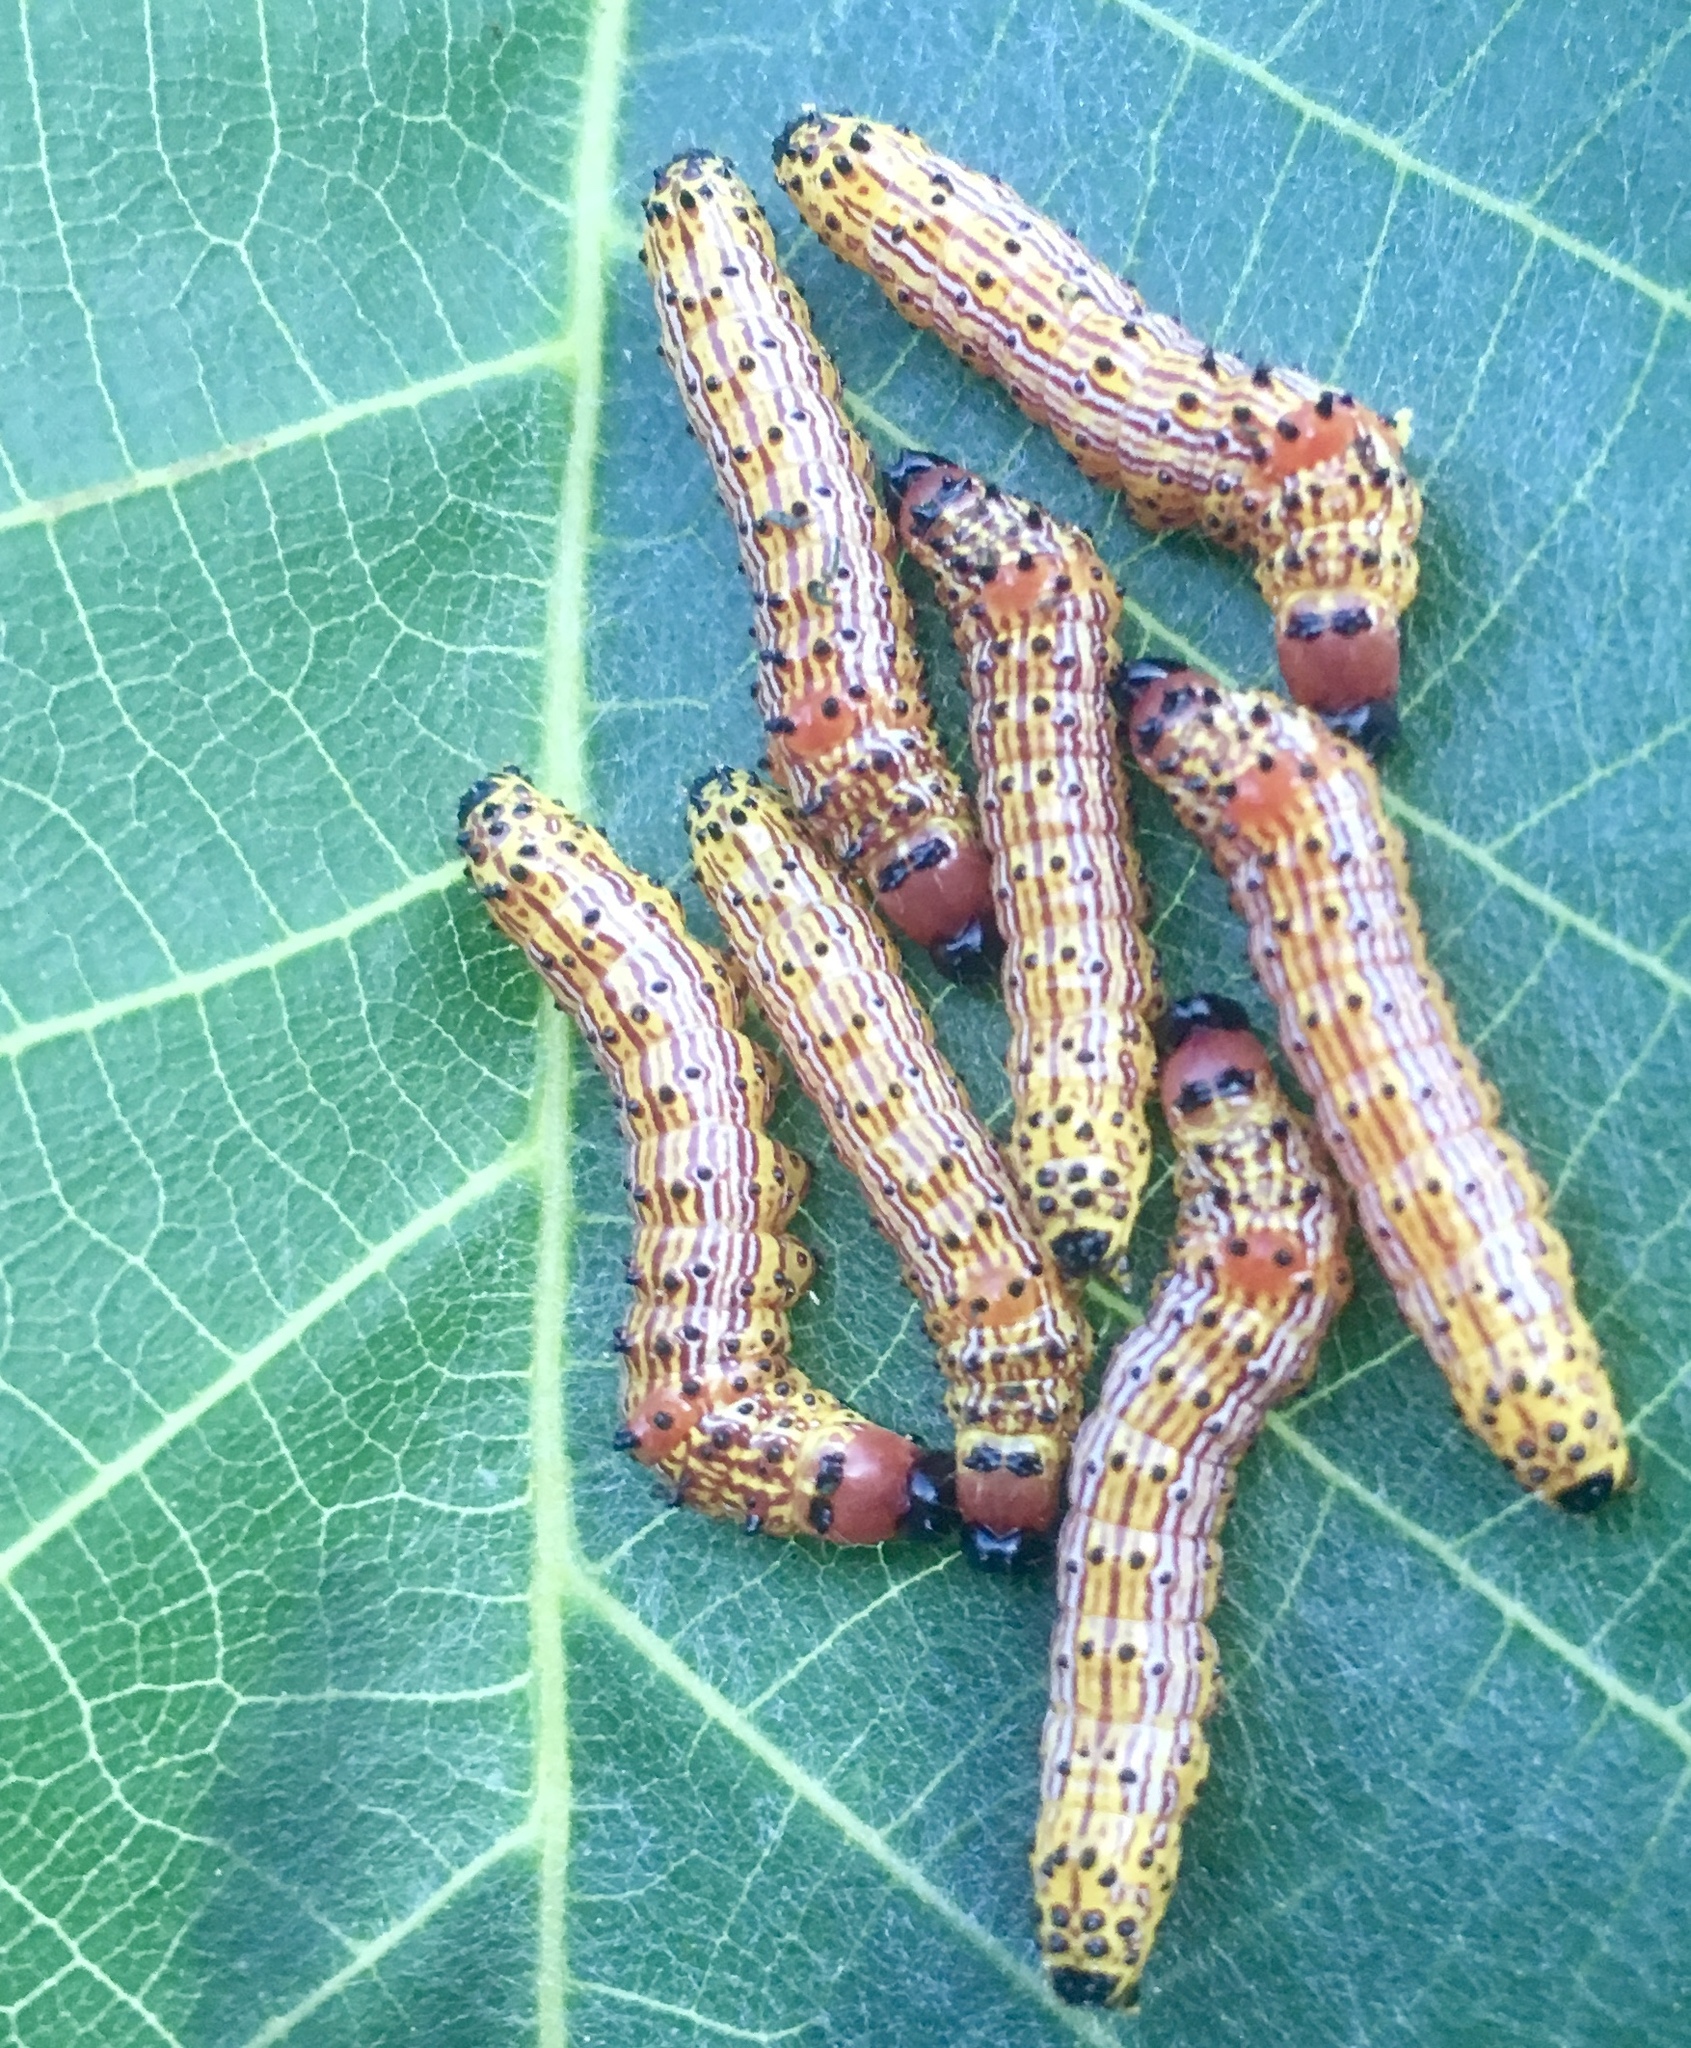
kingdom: Animalia
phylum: Arthropoda
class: Insecta
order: Lepidoptera
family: Notodontidae
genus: Schizura
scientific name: Schizura
